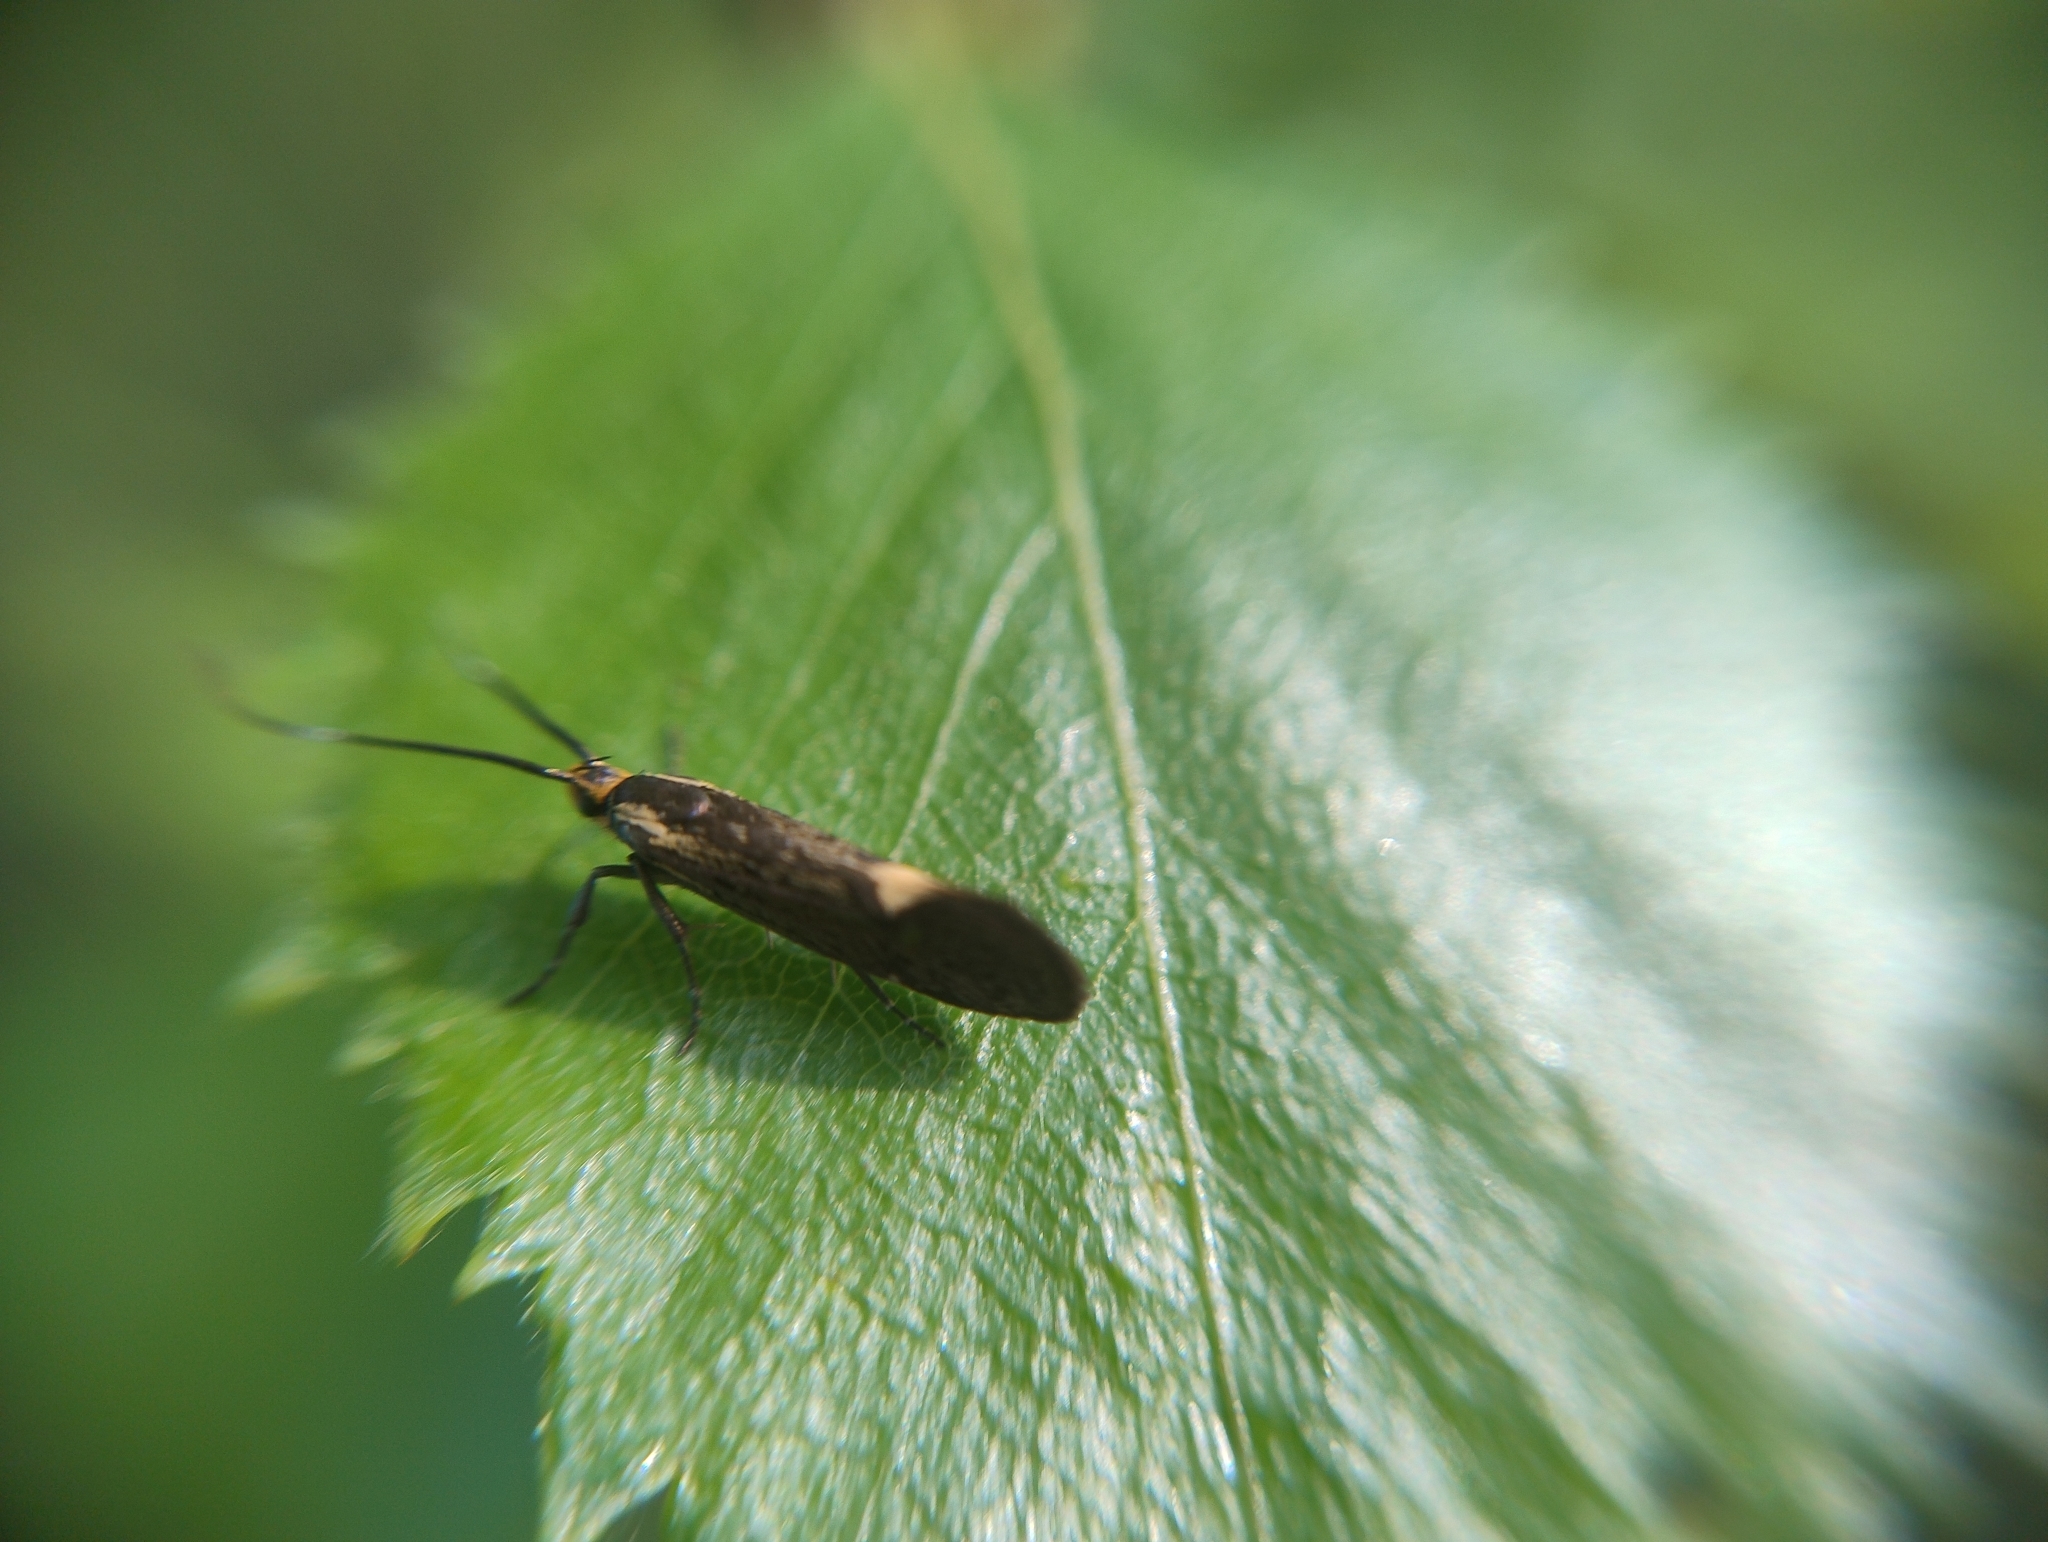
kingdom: Animalia
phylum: Arthropoda
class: Insecta
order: Lepidoptera
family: Oecophoridae
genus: Dafa
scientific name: Dafa Esperia sulphurella
